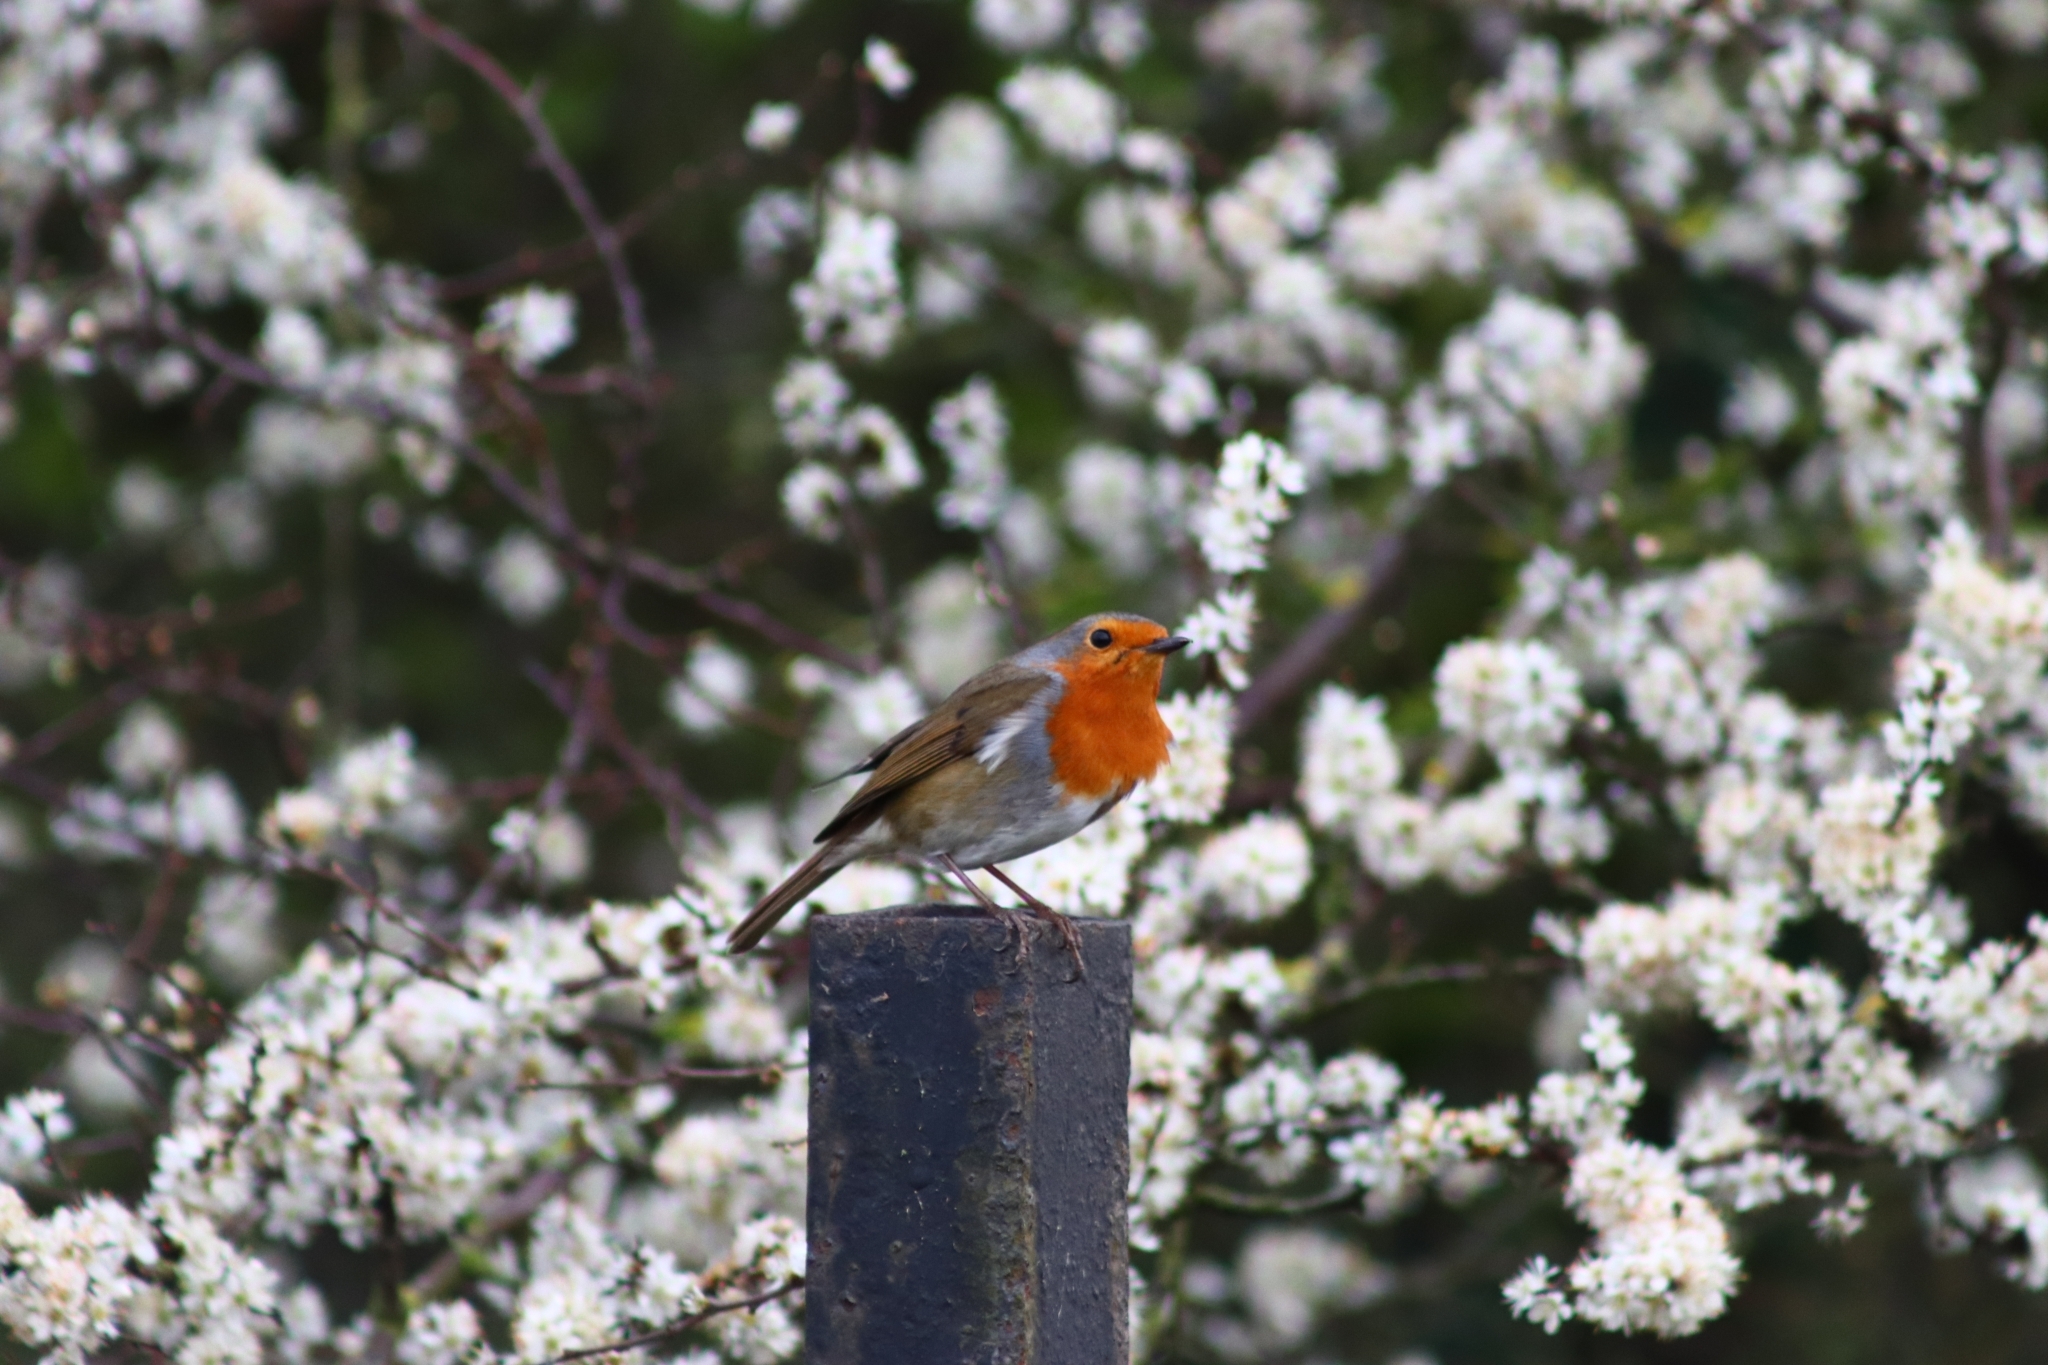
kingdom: Animalia
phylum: Chordata
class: Aves
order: Passeriformes
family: Muscicapidae
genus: Erithacus
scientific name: Erithacus rubecula
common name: European robin
